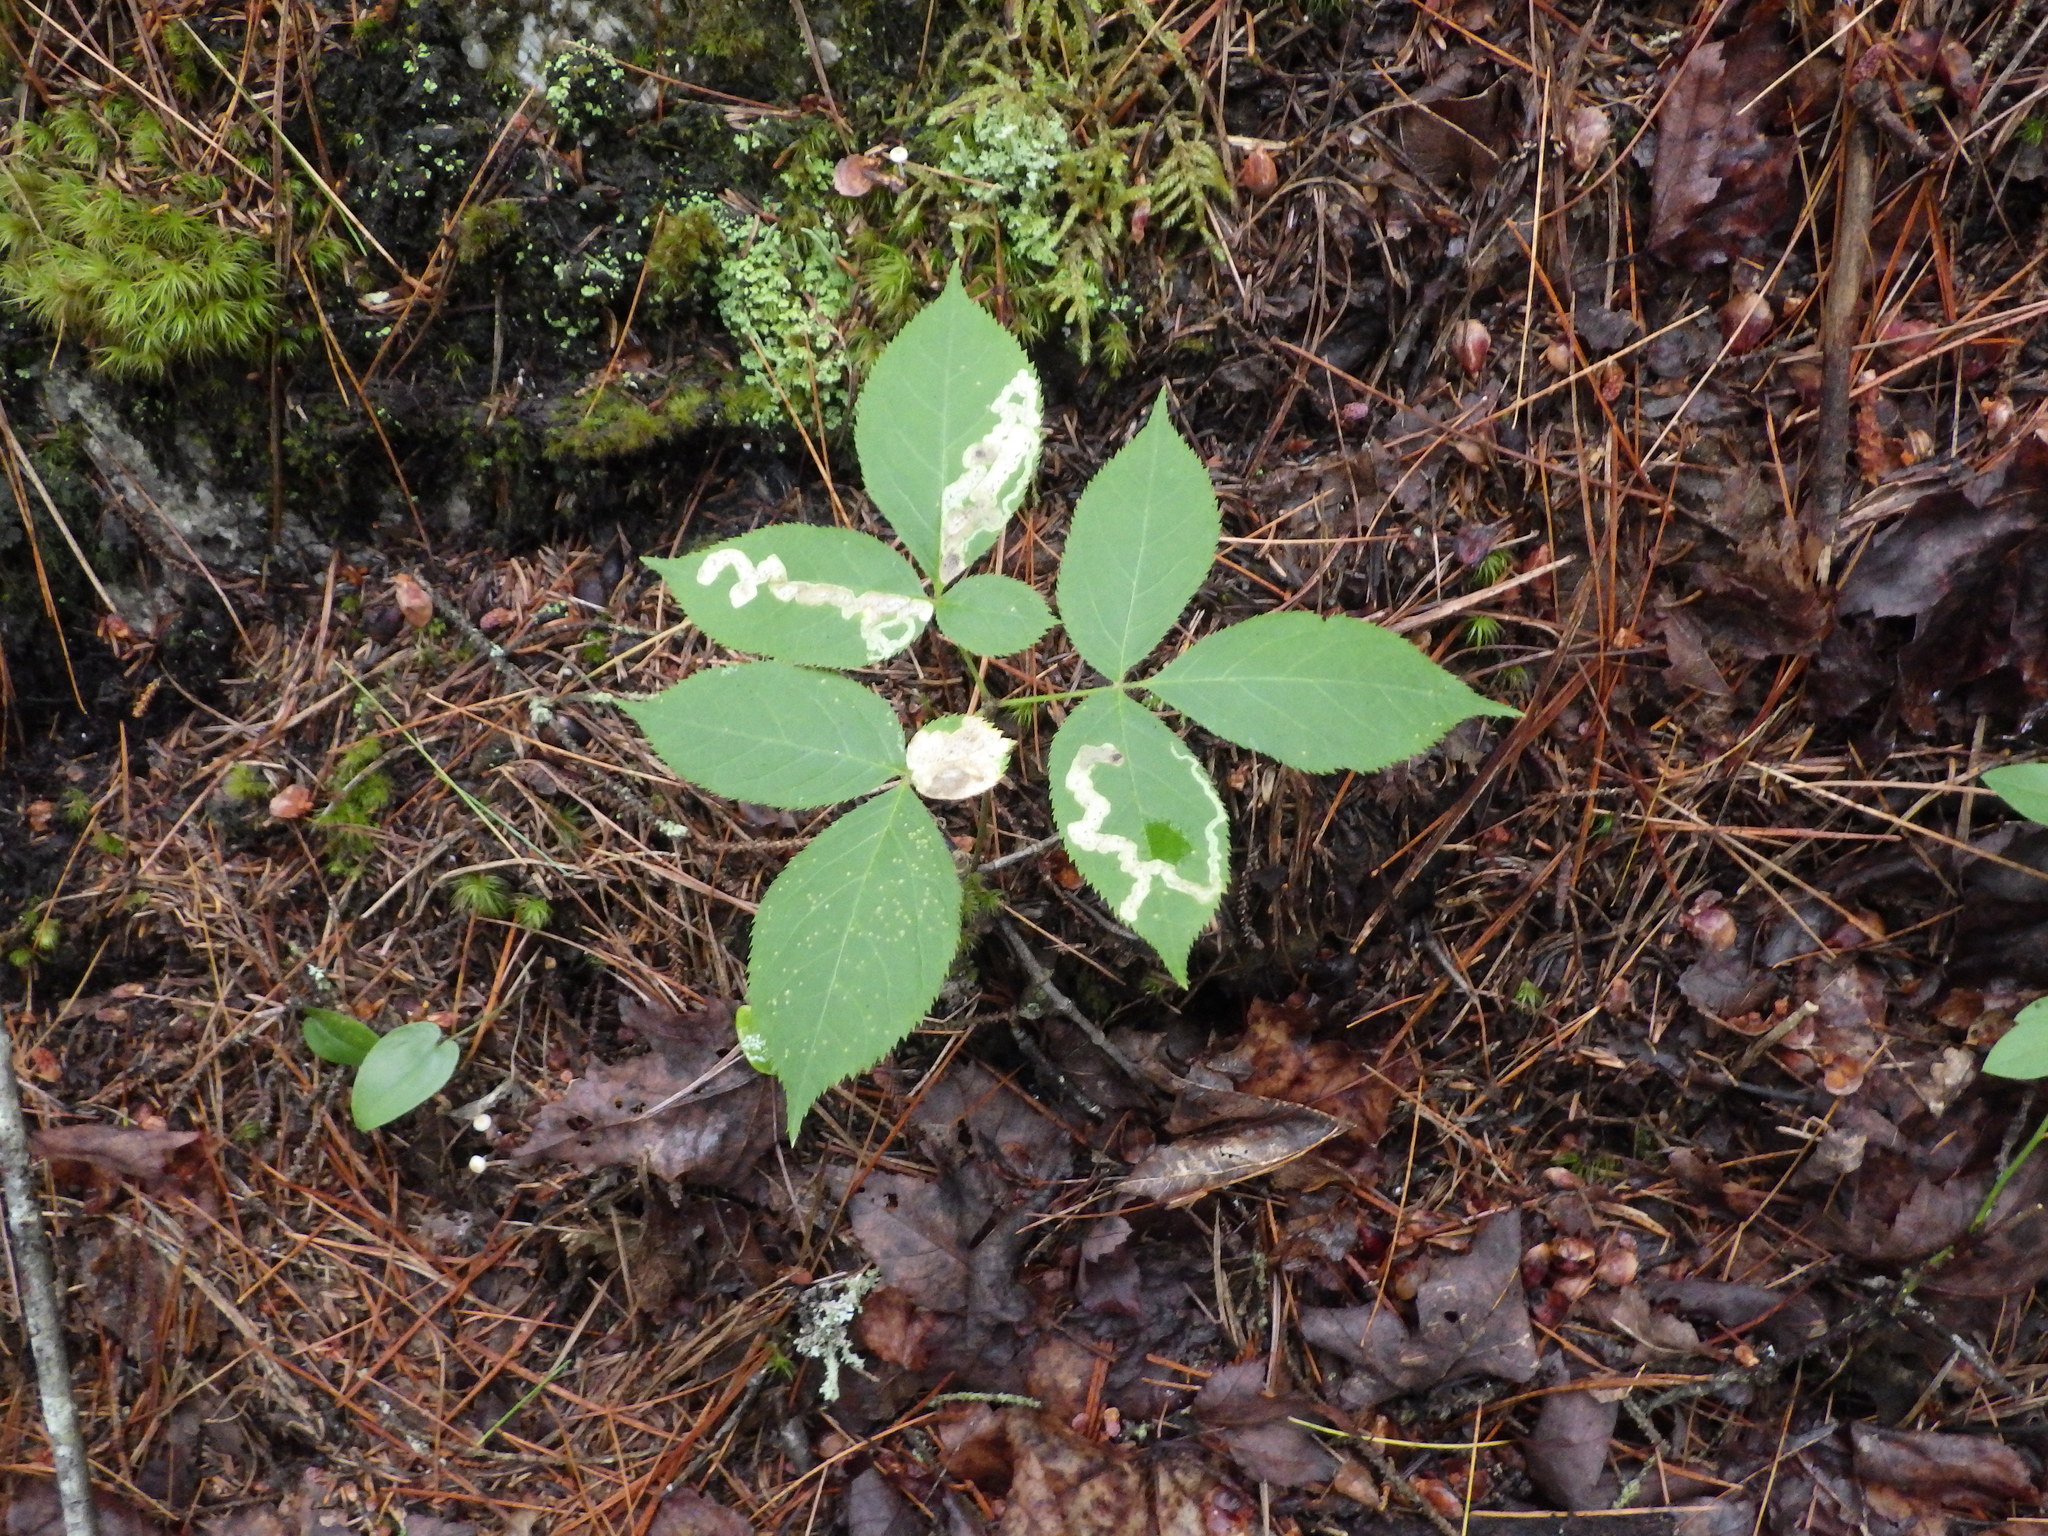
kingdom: Animalia
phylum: Arthropoda
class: Insecta
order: Diptera
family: Agromyzidae
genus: Phytomyza
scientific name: Phytomyza aralivora
